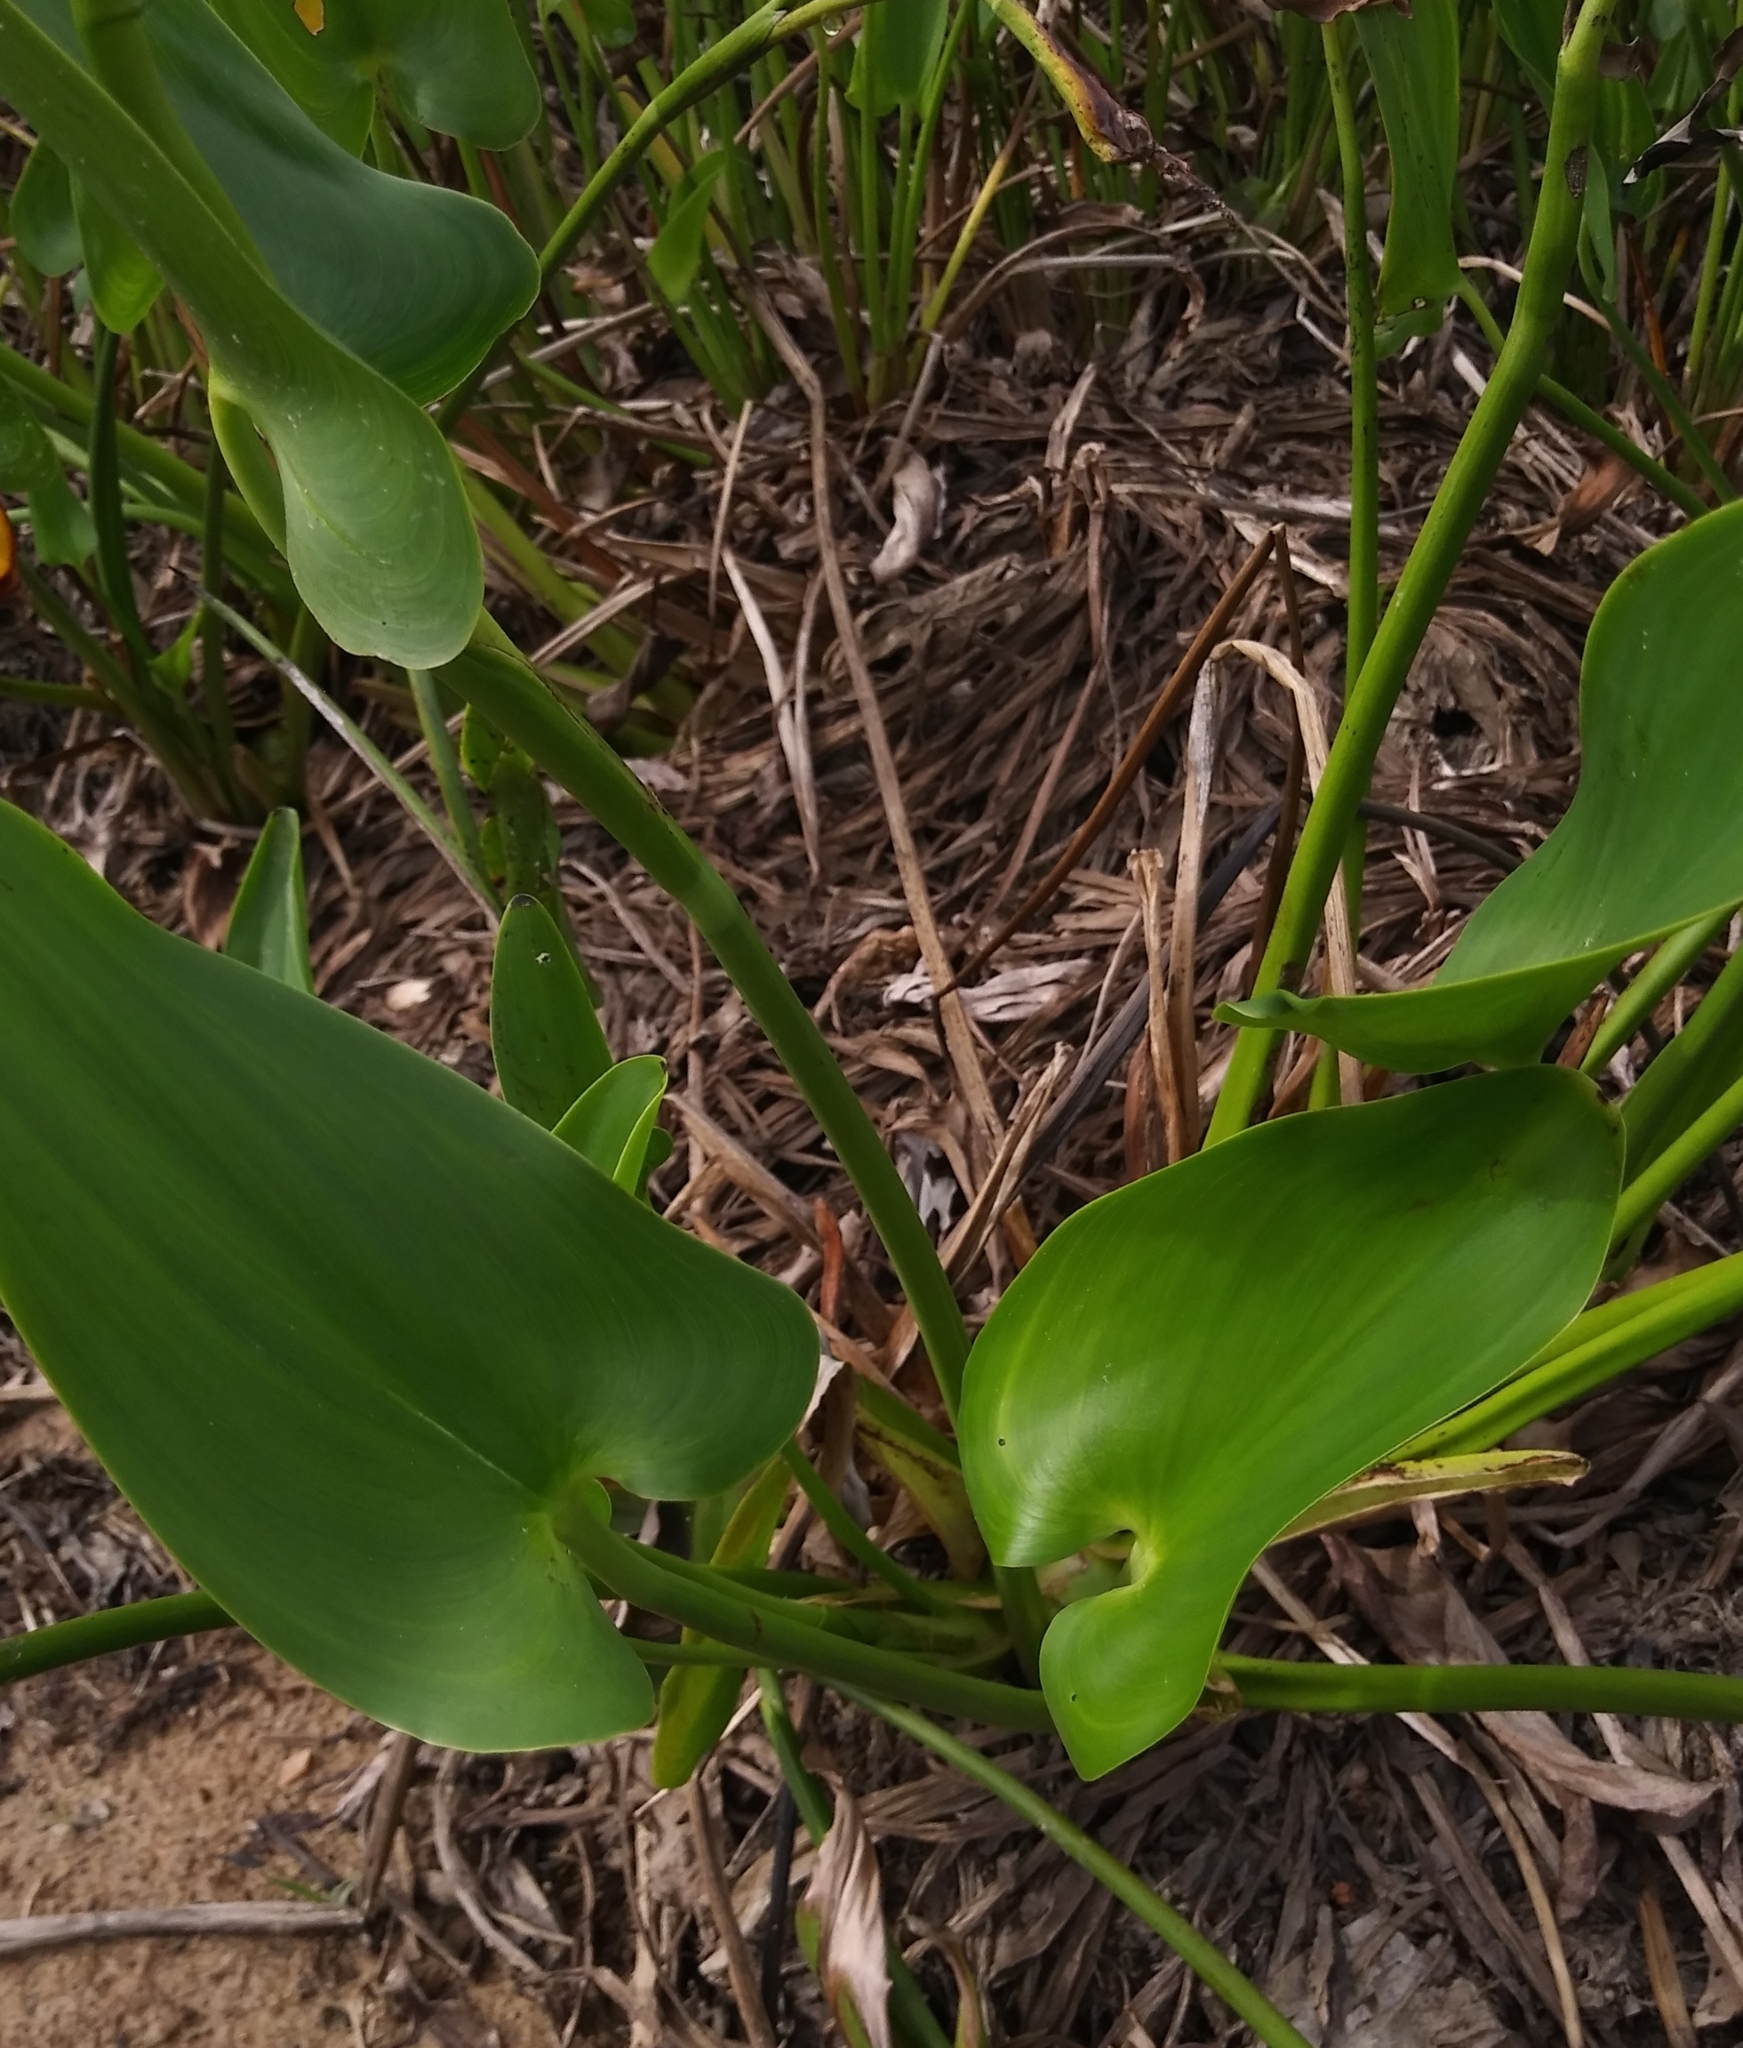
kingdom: Plantae
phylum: Tracheophyta
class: Liliopsida
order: Commelinales
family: Pontederiaceae
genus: Pontederia
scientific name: Pontederia cordata
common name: Pickerelweed
